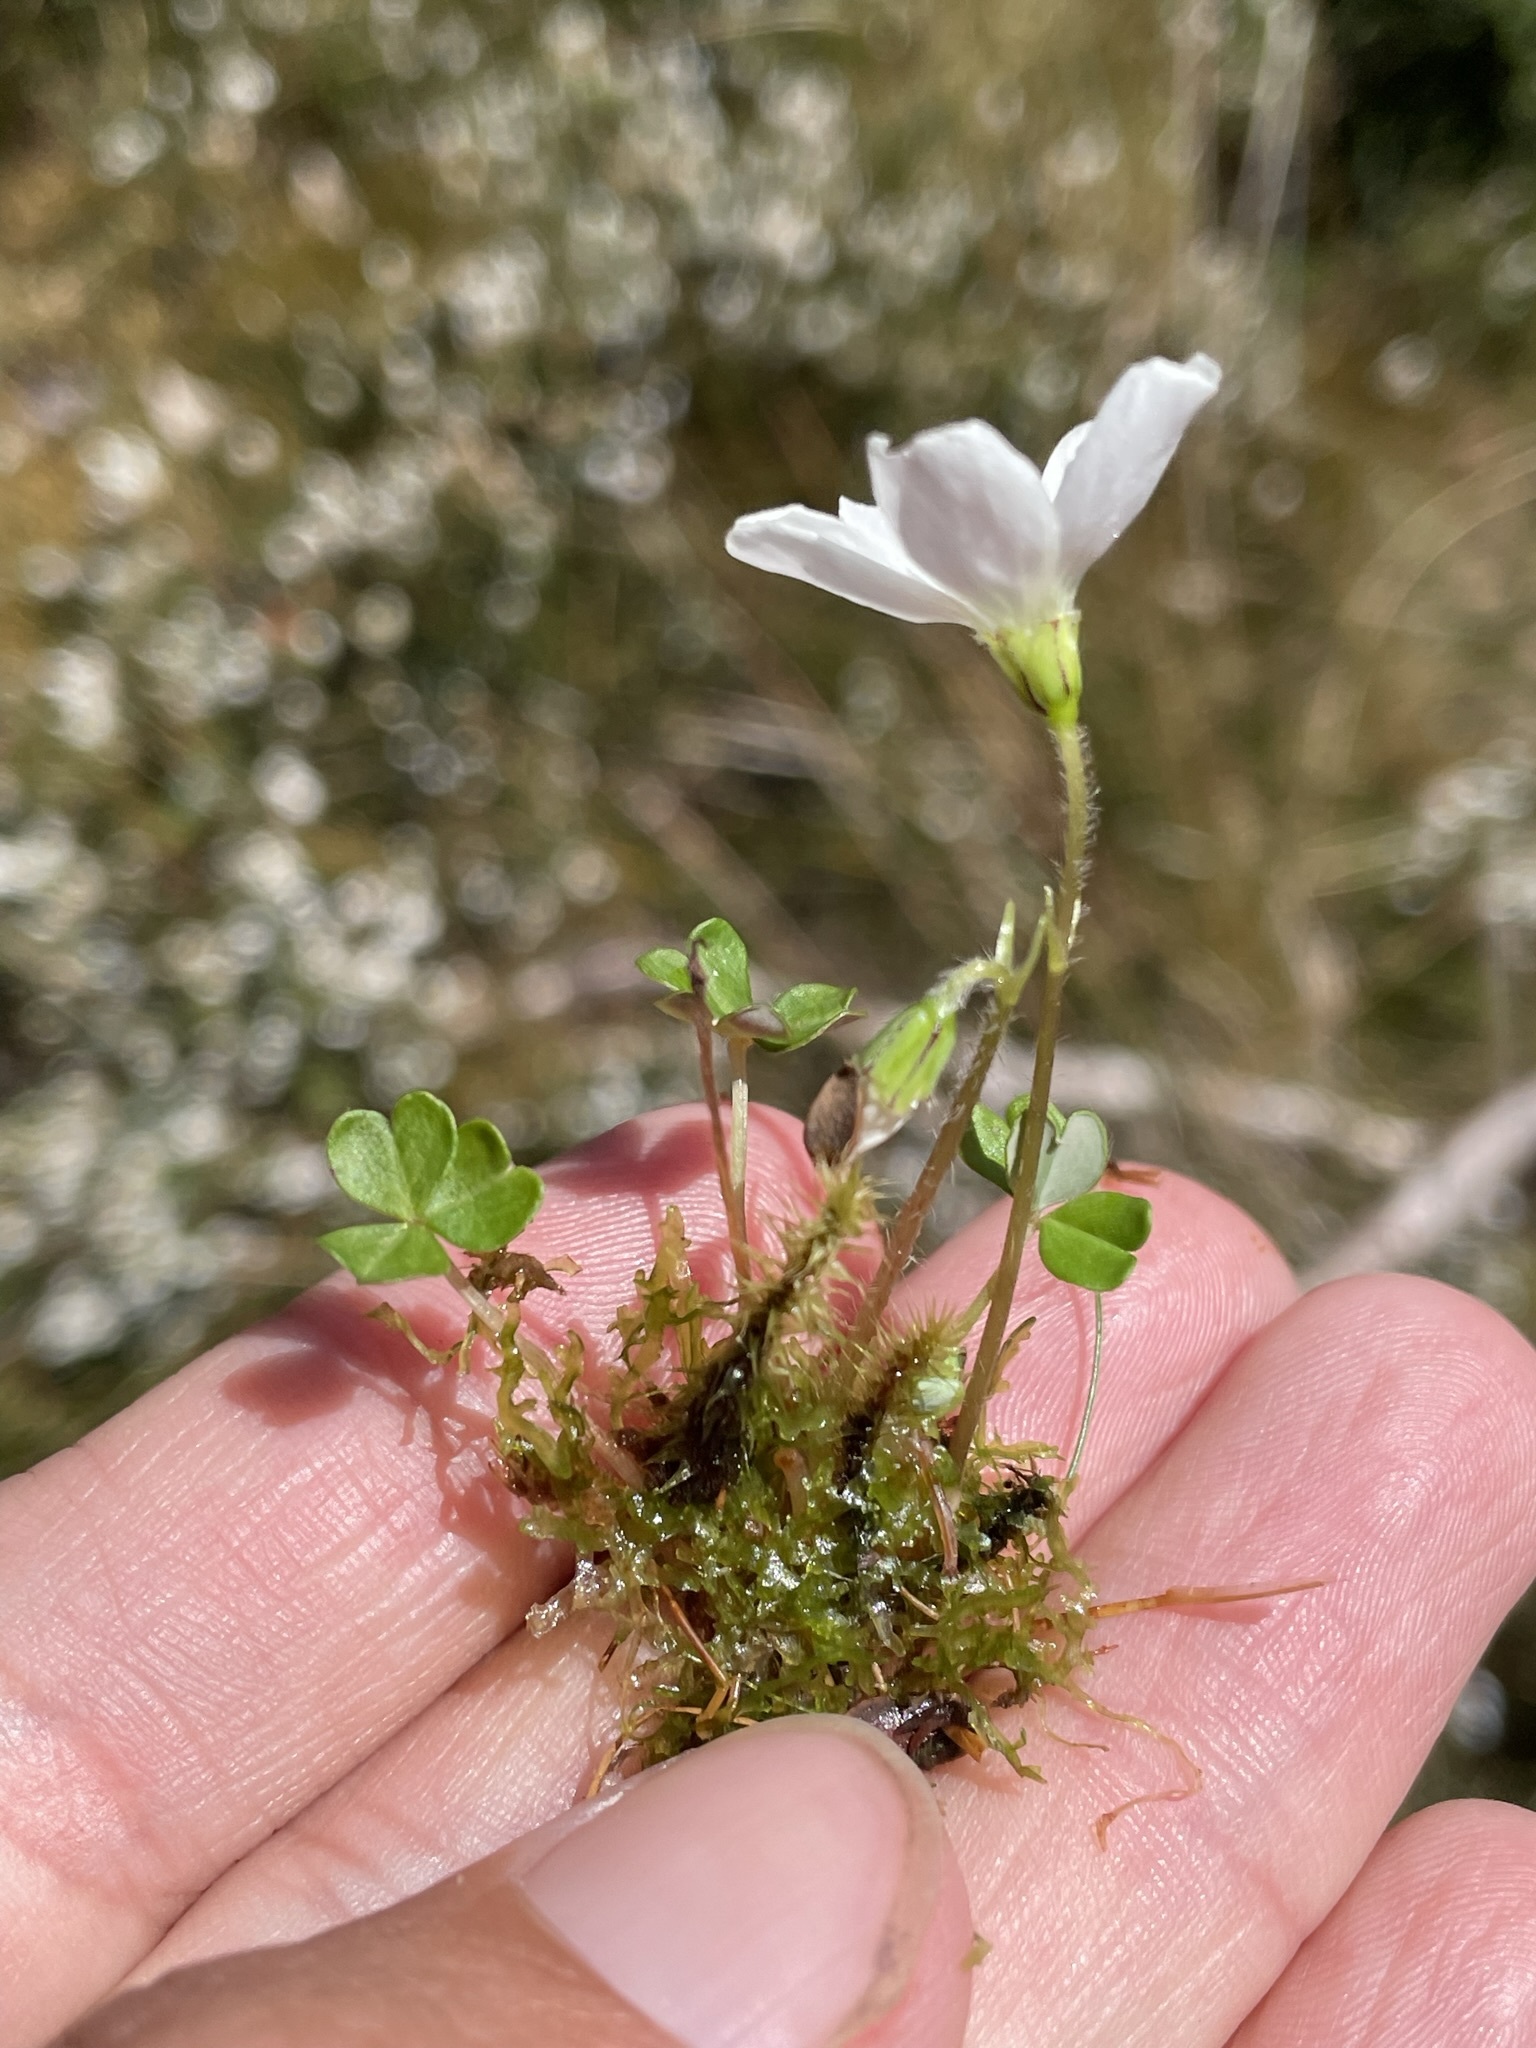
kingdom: Plantae
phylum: Tracheophyta
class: Magnoliopsida
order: Oxalidales
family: Oxalidaceae
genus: Oxalis
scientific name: Oxalis magellanica
